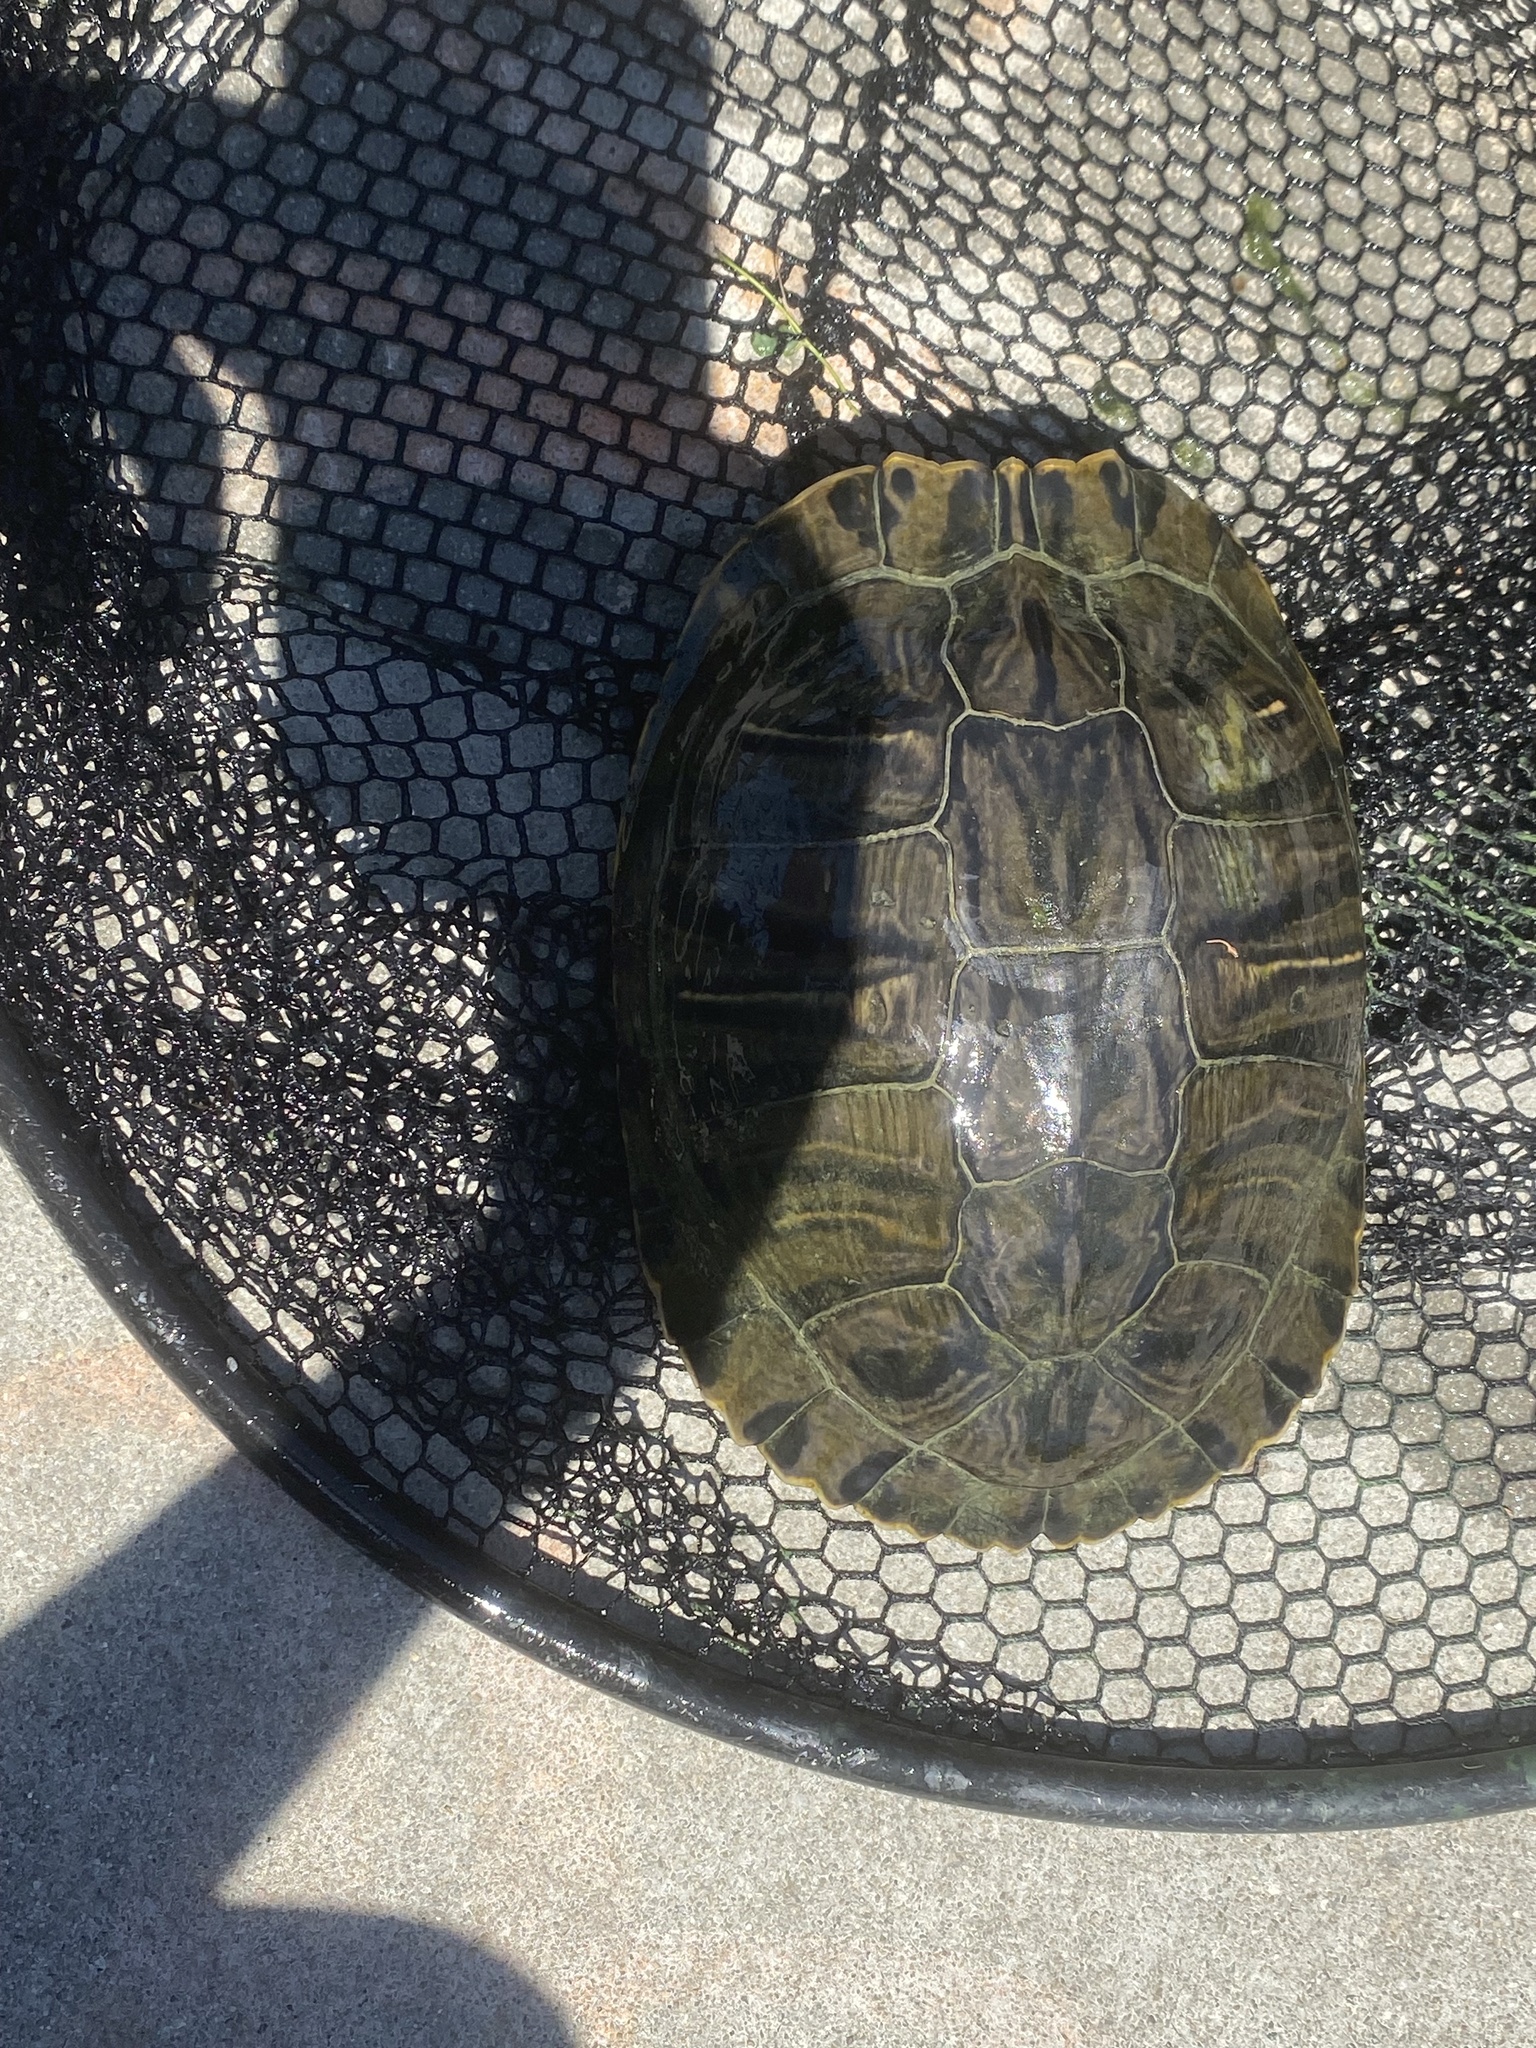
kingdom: Animalia
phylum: Chordata
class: Testudines
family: Emydidae
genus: Trachemys
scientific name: Trachemys scripta
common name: Slider
